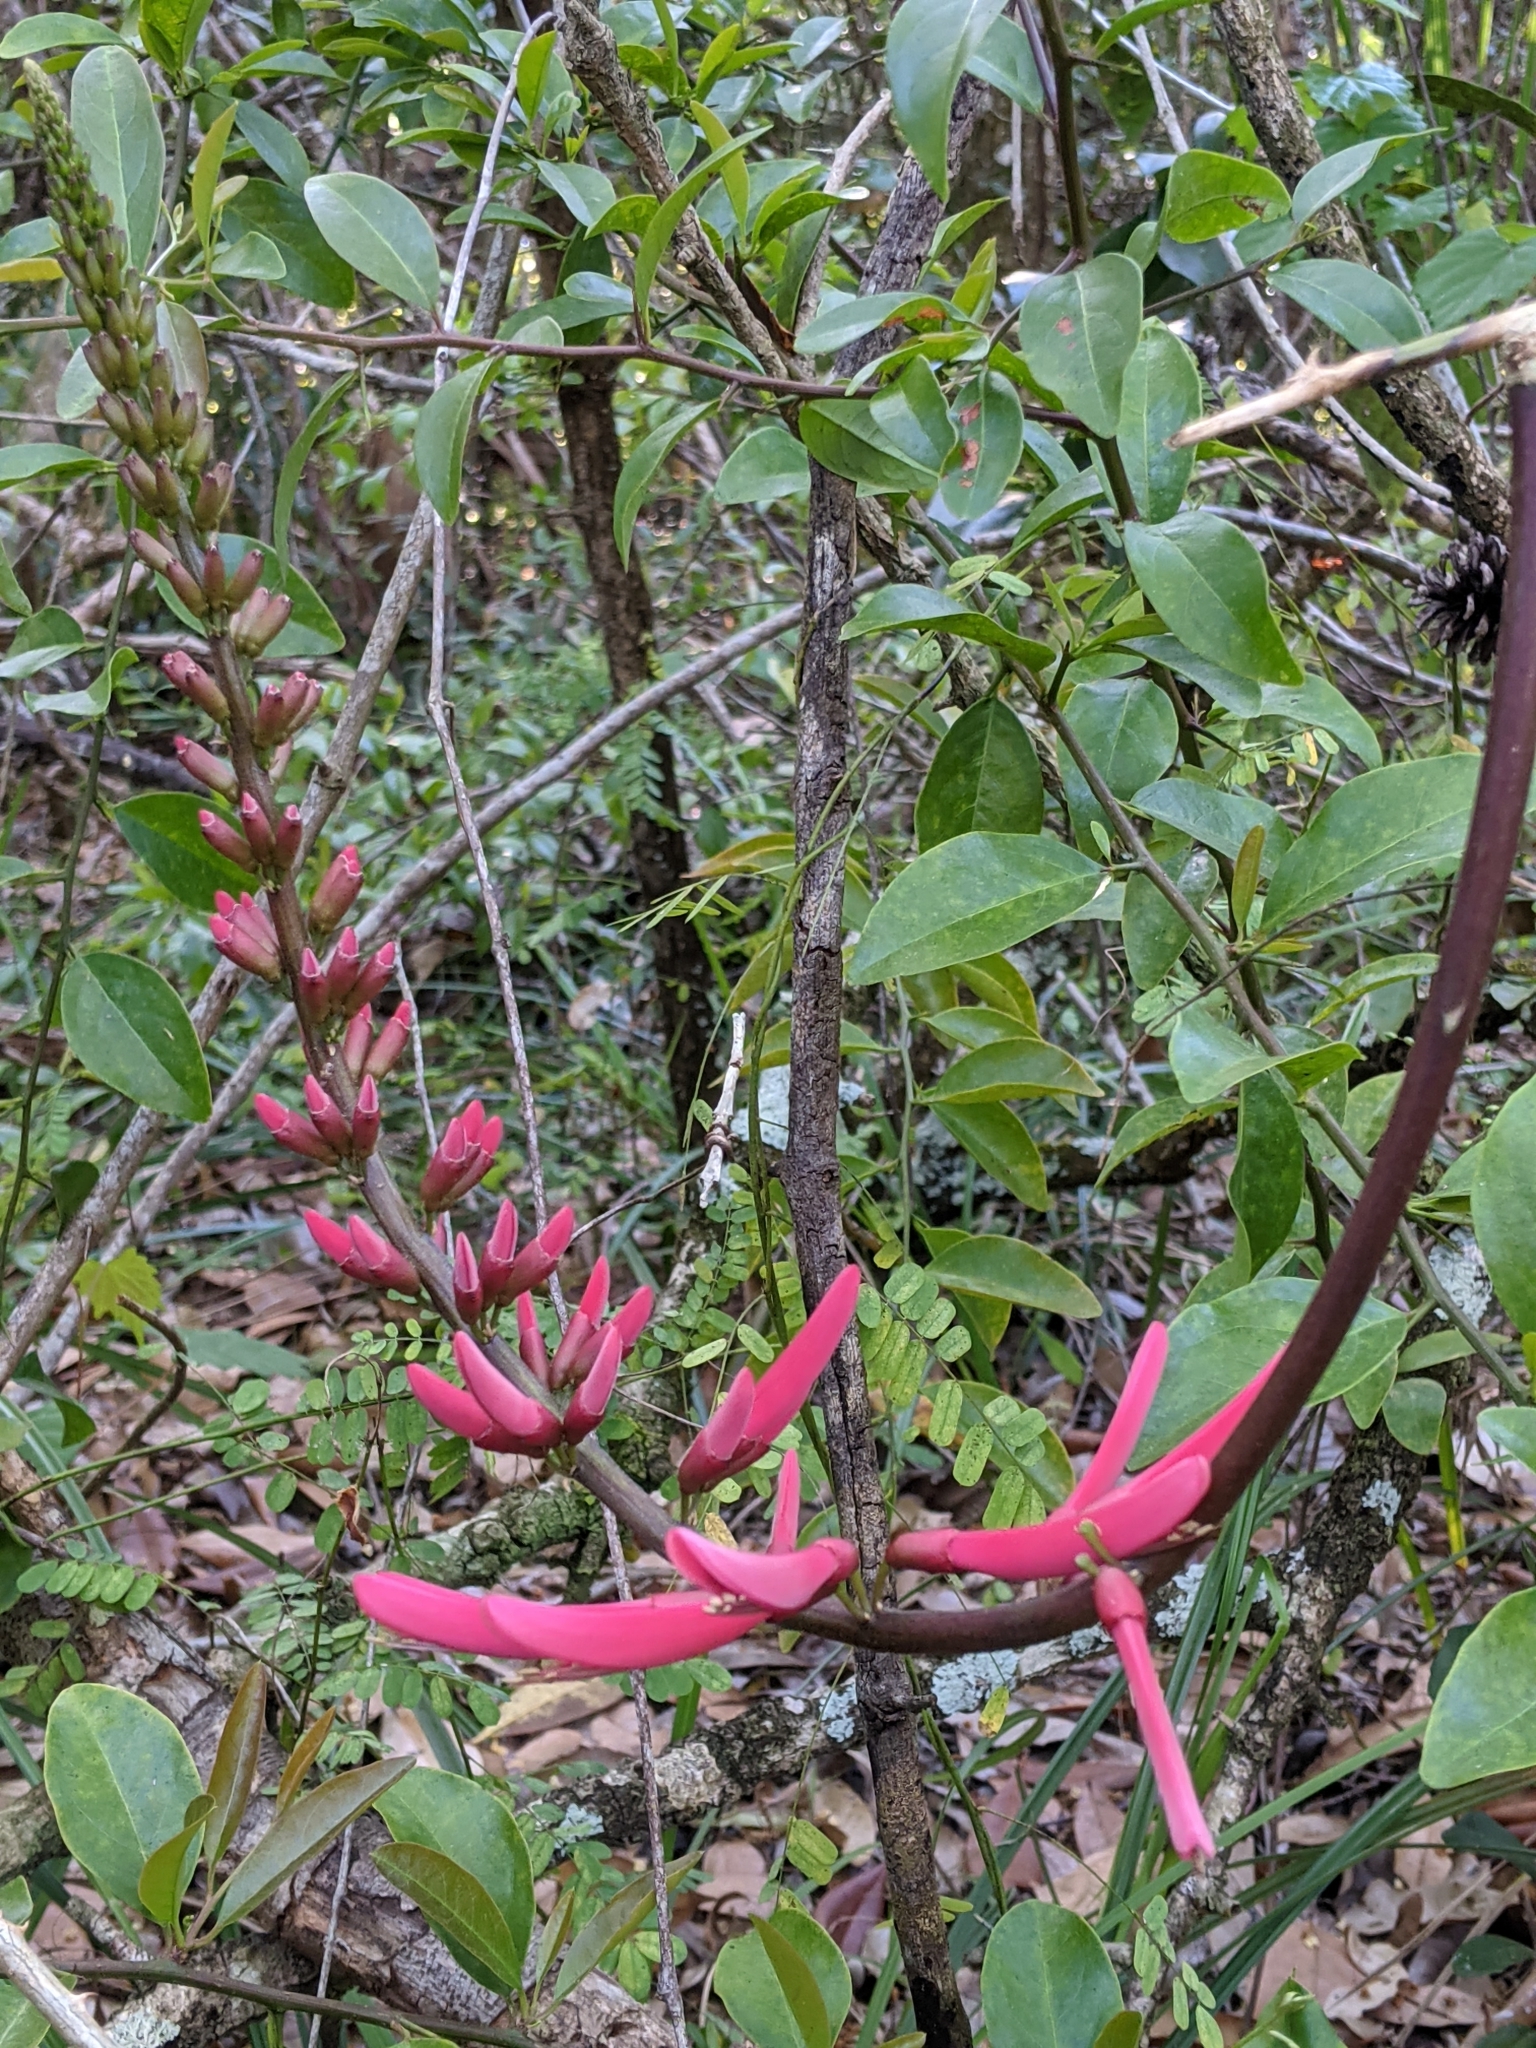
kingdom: Plantae
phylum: Tracheophyta
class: Magnoliopsida
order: Fabales
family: Fabaceae
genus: Erythrina
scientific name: Erythrina herbacea
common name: Coral-bean
